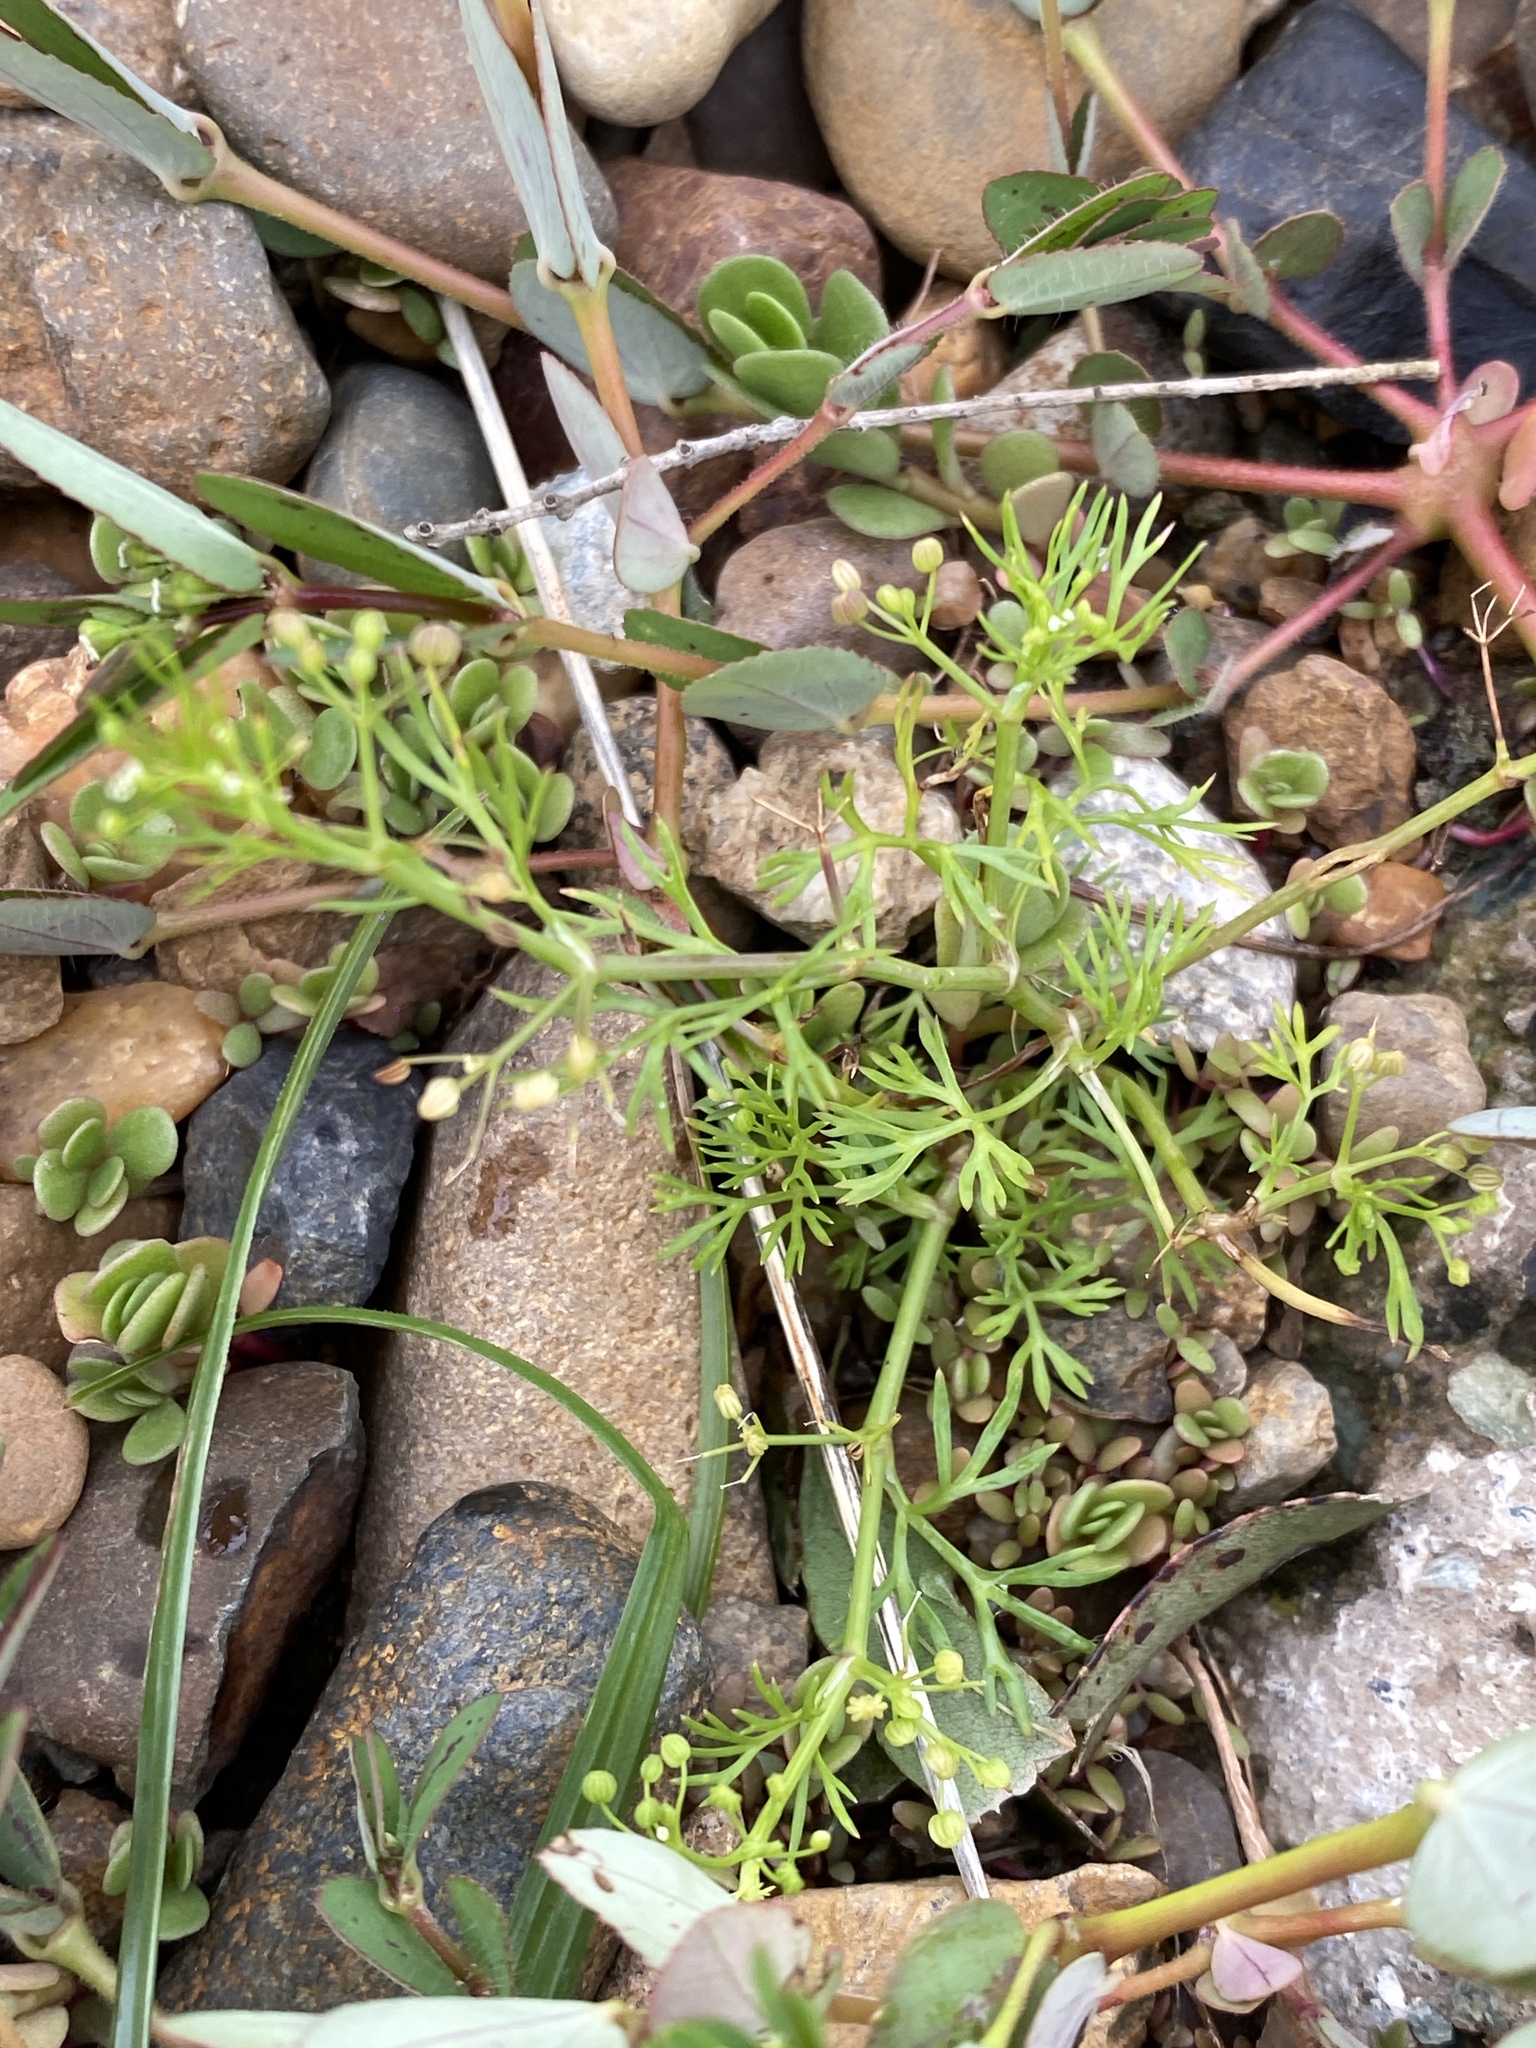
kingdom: Plantae
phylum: Tracheophyta
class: Magnoliopsida
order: Apiales
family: Apiaceae
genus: Cyclospermum
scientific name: Cyclospermum leptophyllum
